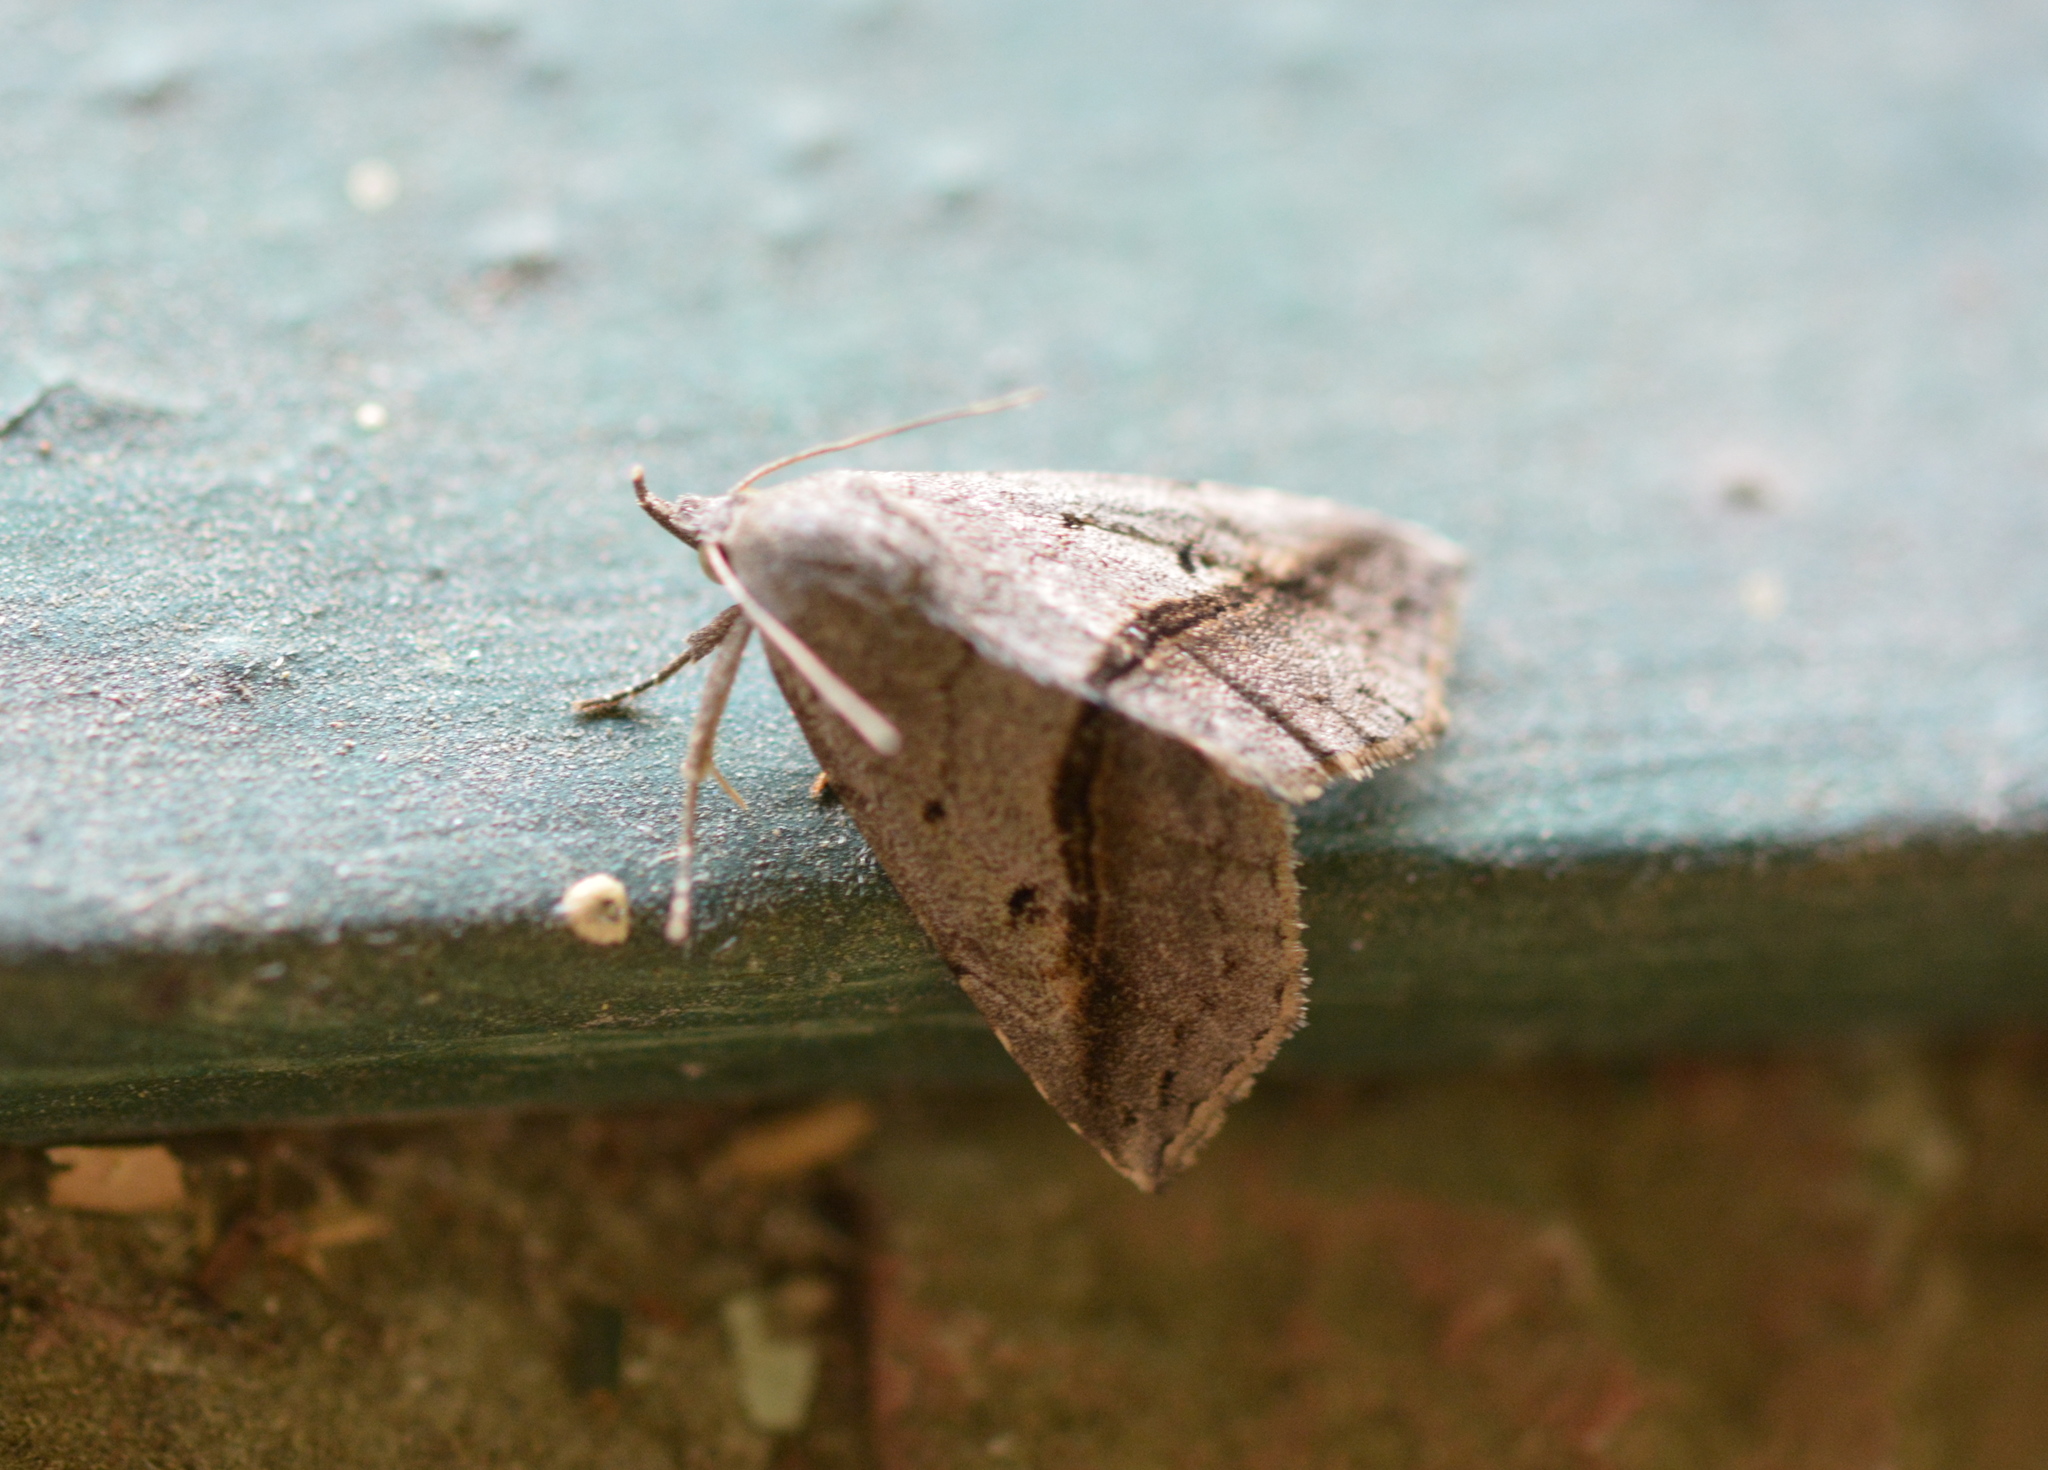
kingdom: Animalia
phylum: Arthropoda
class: Insecta
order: Lepidoptera
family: Erebidae
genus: Spargaloma
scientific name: Spargaloma perditalis
